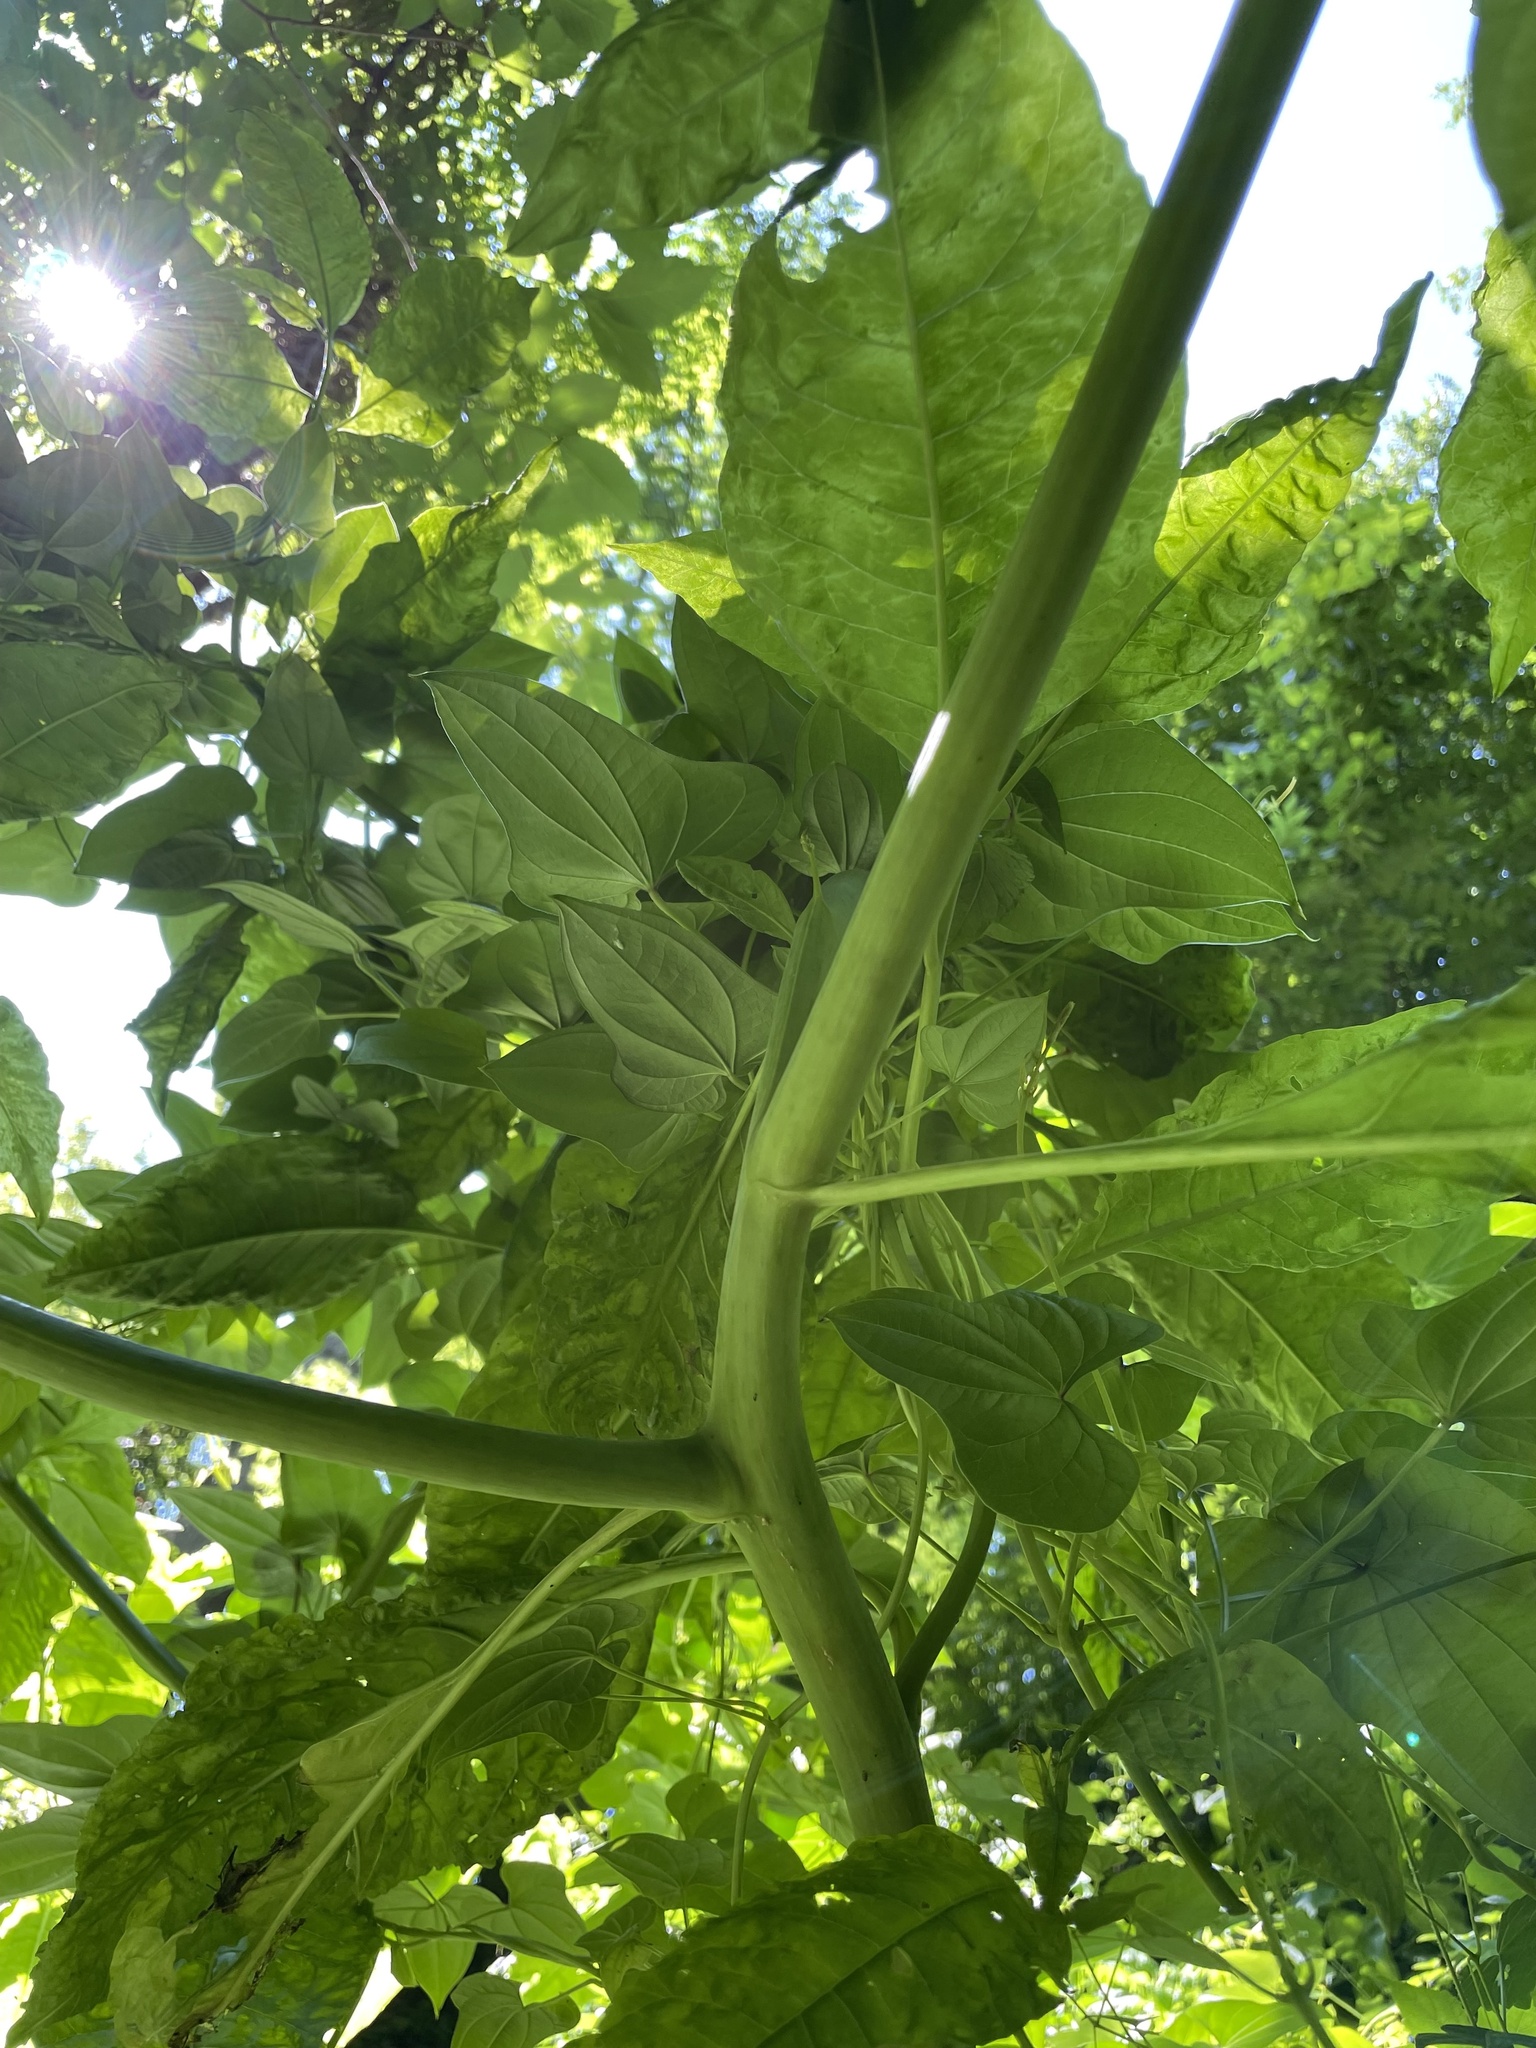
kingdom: Plantae
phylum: Tracheophyta
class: Magnoliopsida
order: Caryophyllales
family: Phytolaccaceae
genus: Phytolacca
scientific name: Phytolacca americana
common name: American pokeweed
